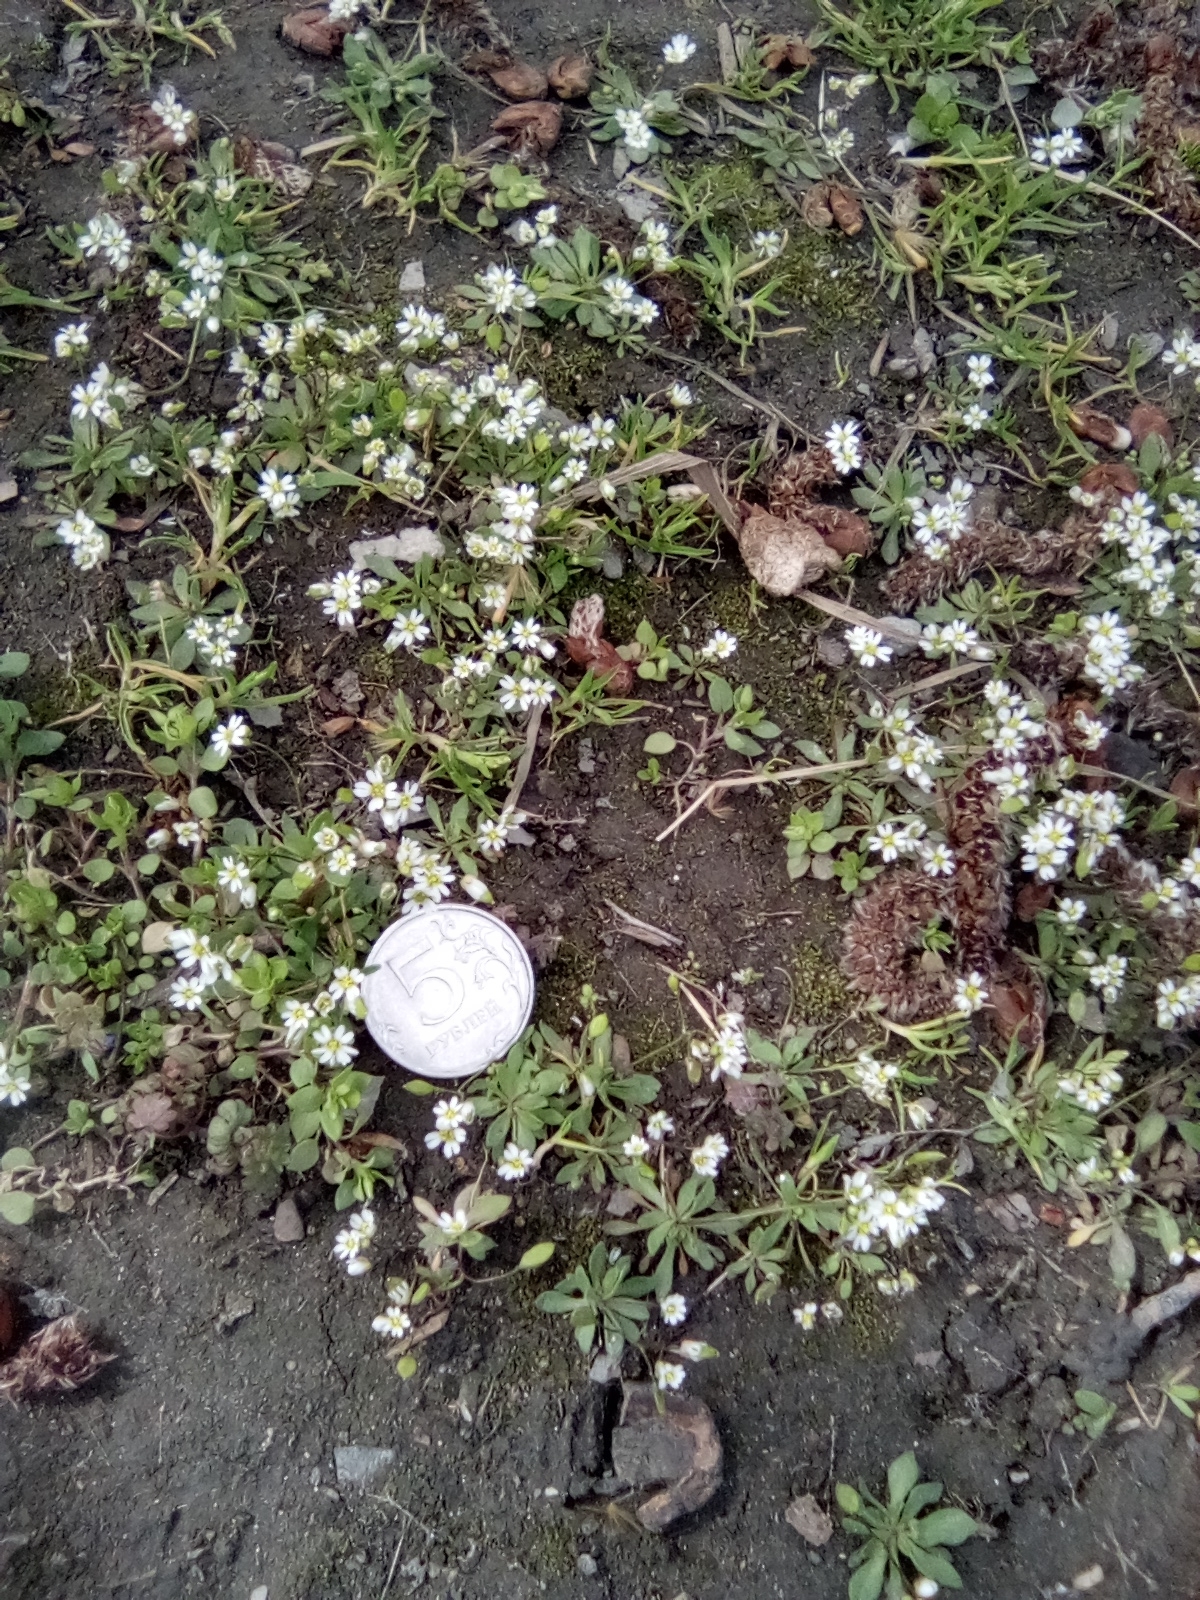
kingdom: Plantae
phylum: Tracheophyta
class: Magnoliopsida
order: Brassicales
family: Brassicaceae
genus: Draba
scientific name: Draba verna
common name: Spring draba
